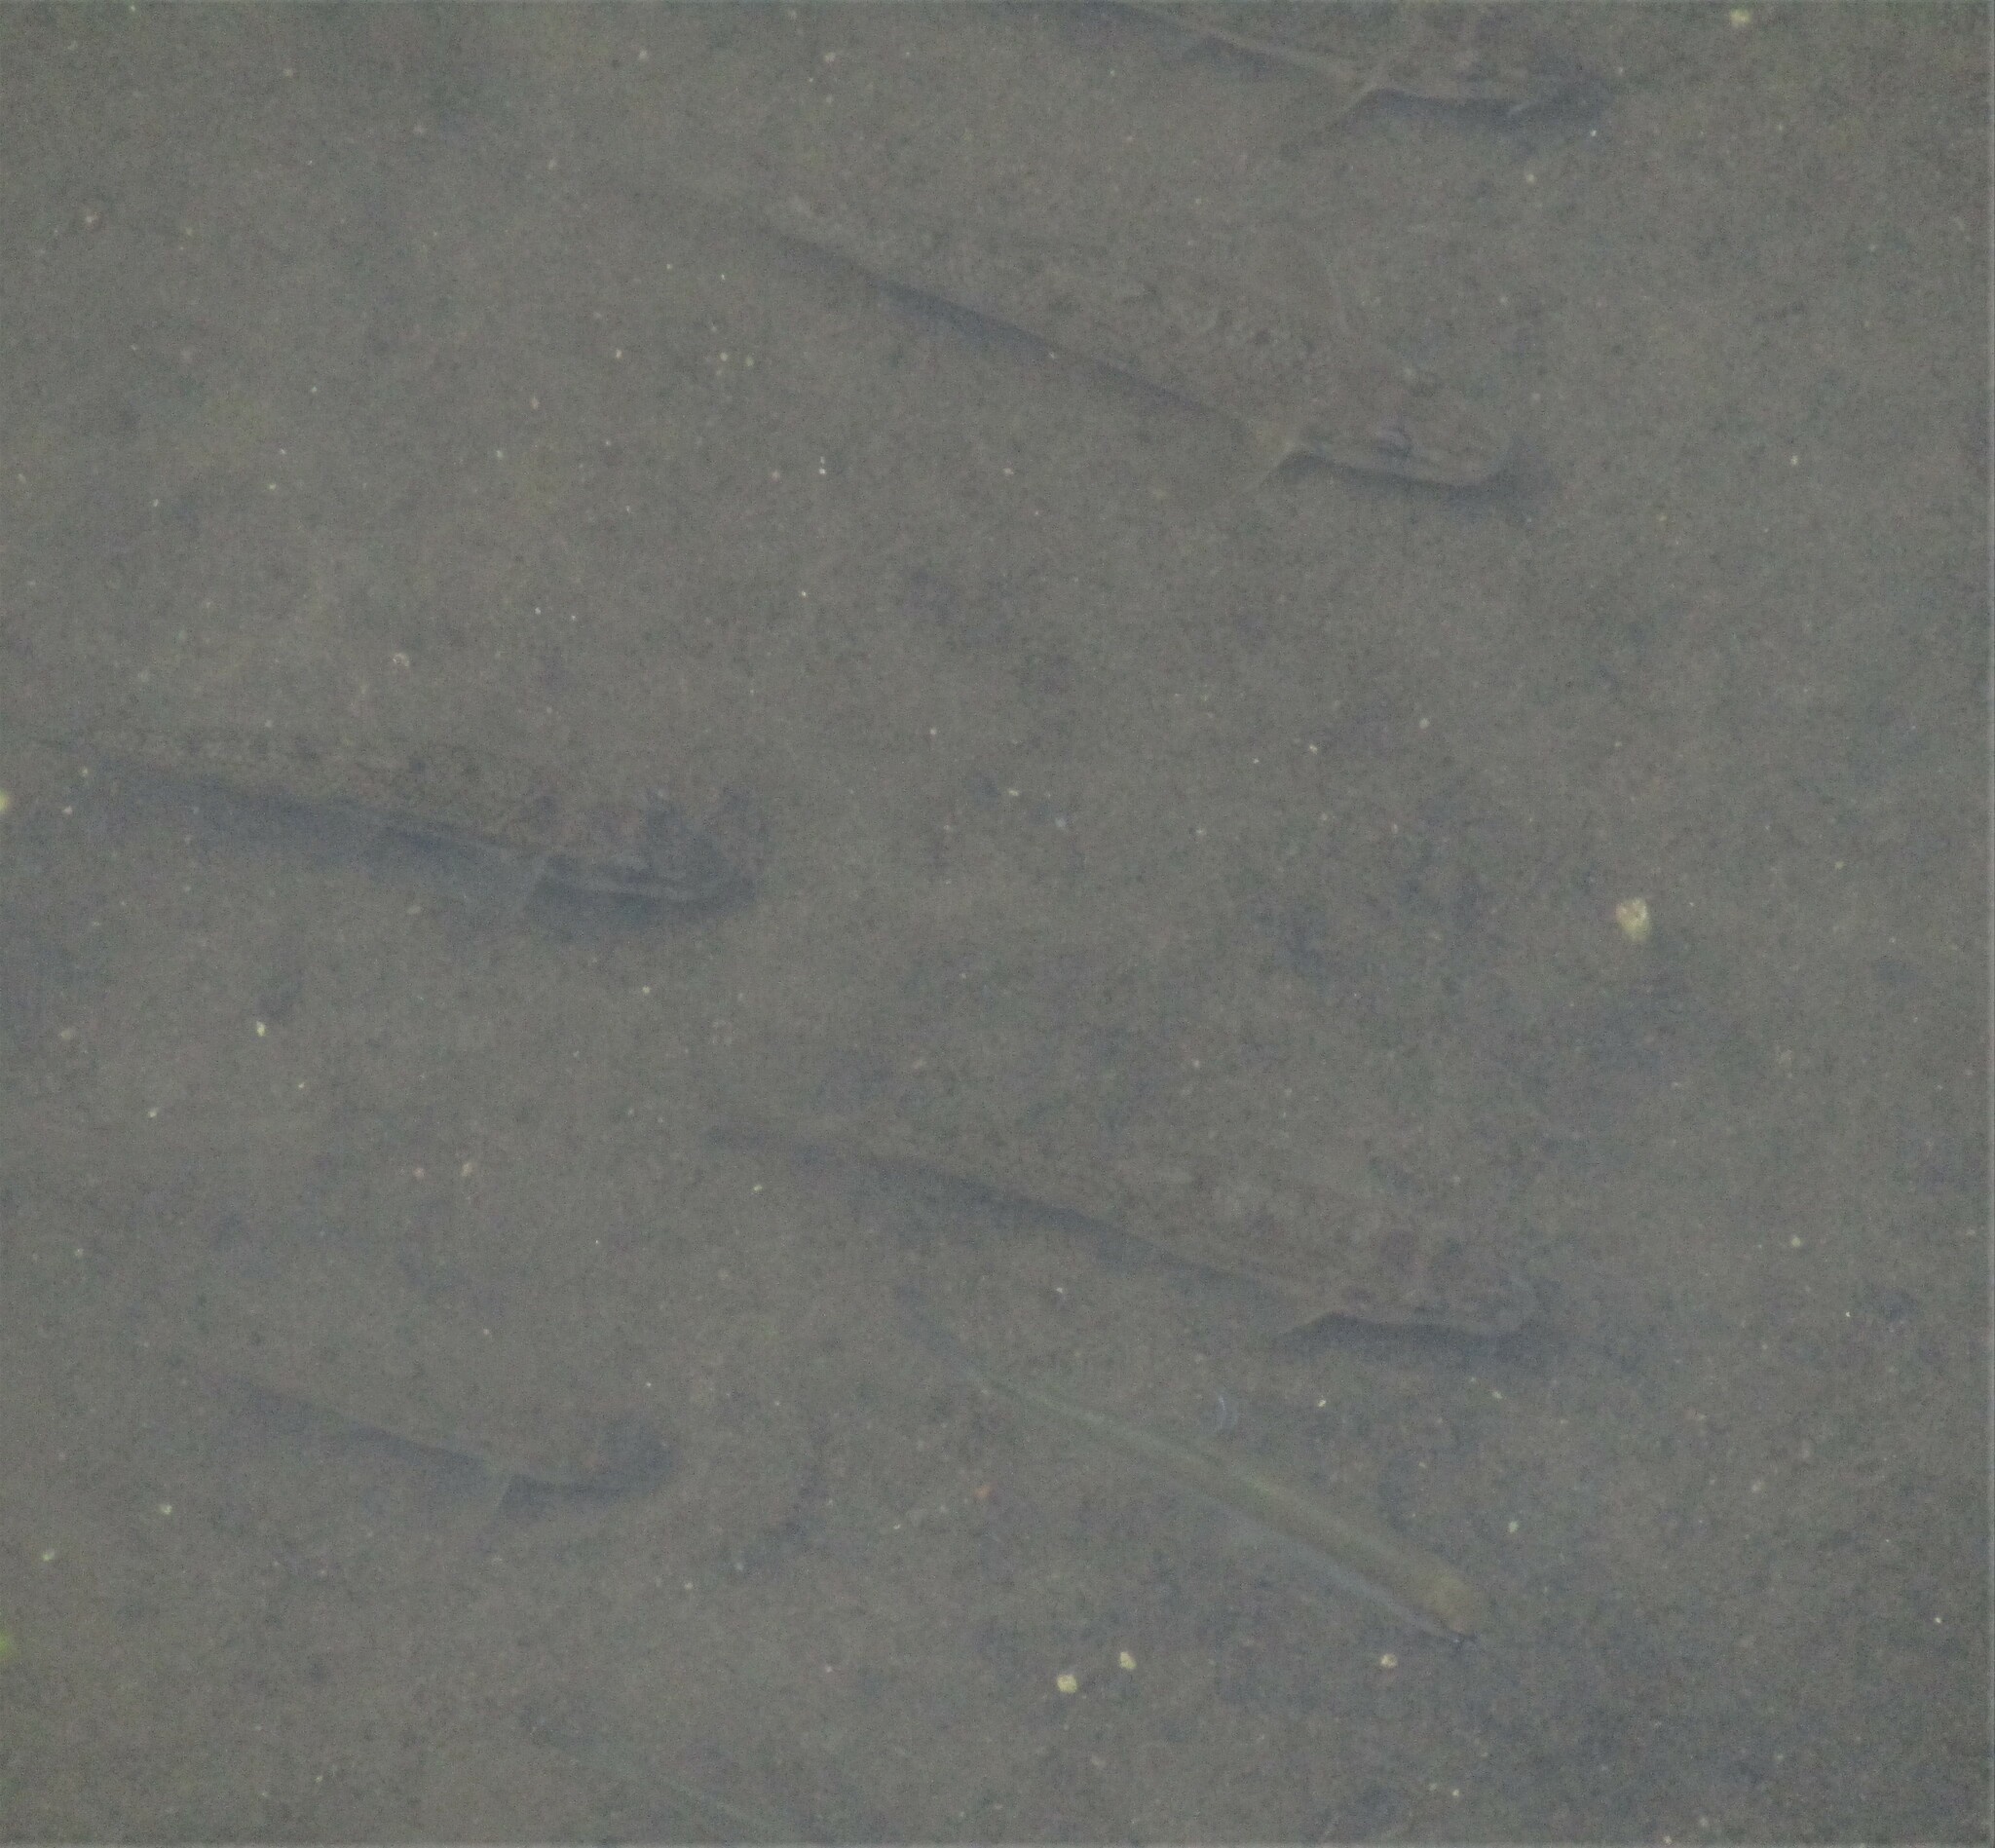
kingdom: Animalia
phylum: Chordata
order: Cypriniformes
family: Cyprinidae
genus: Gobio
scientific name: Gobio volgensis
